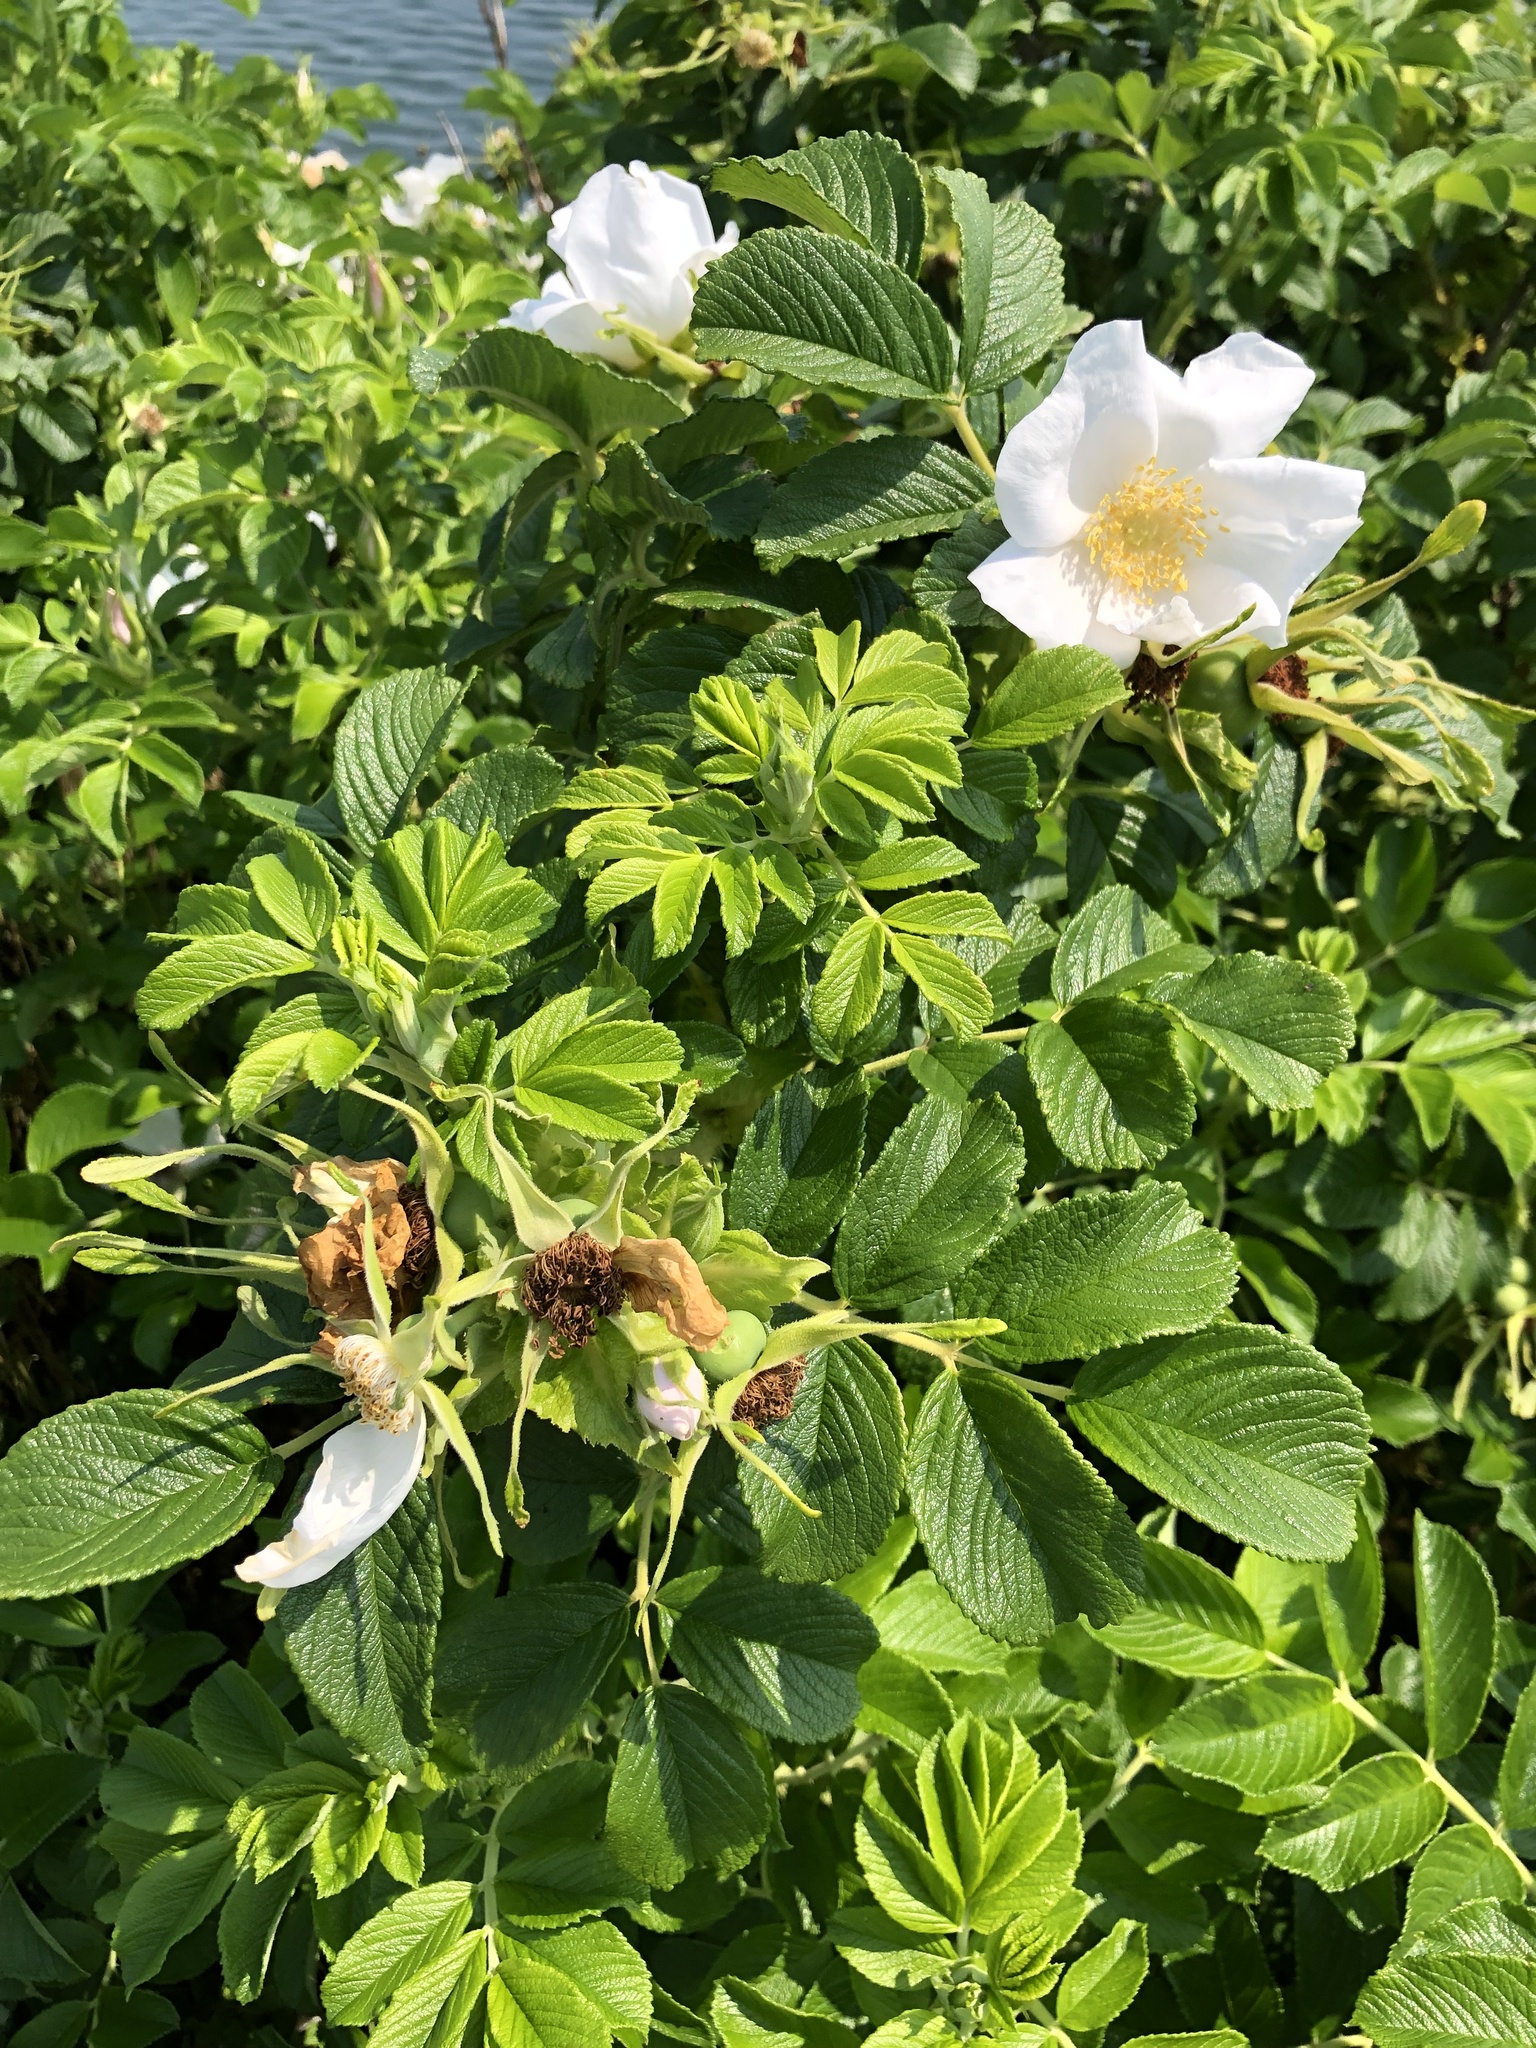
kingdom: Plantae
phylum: Tracheophyta
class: Magnoliopsida
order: Rosales
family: Rosaceae
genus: Rosa
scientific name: Rosa rugosa
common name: Japanese rose
